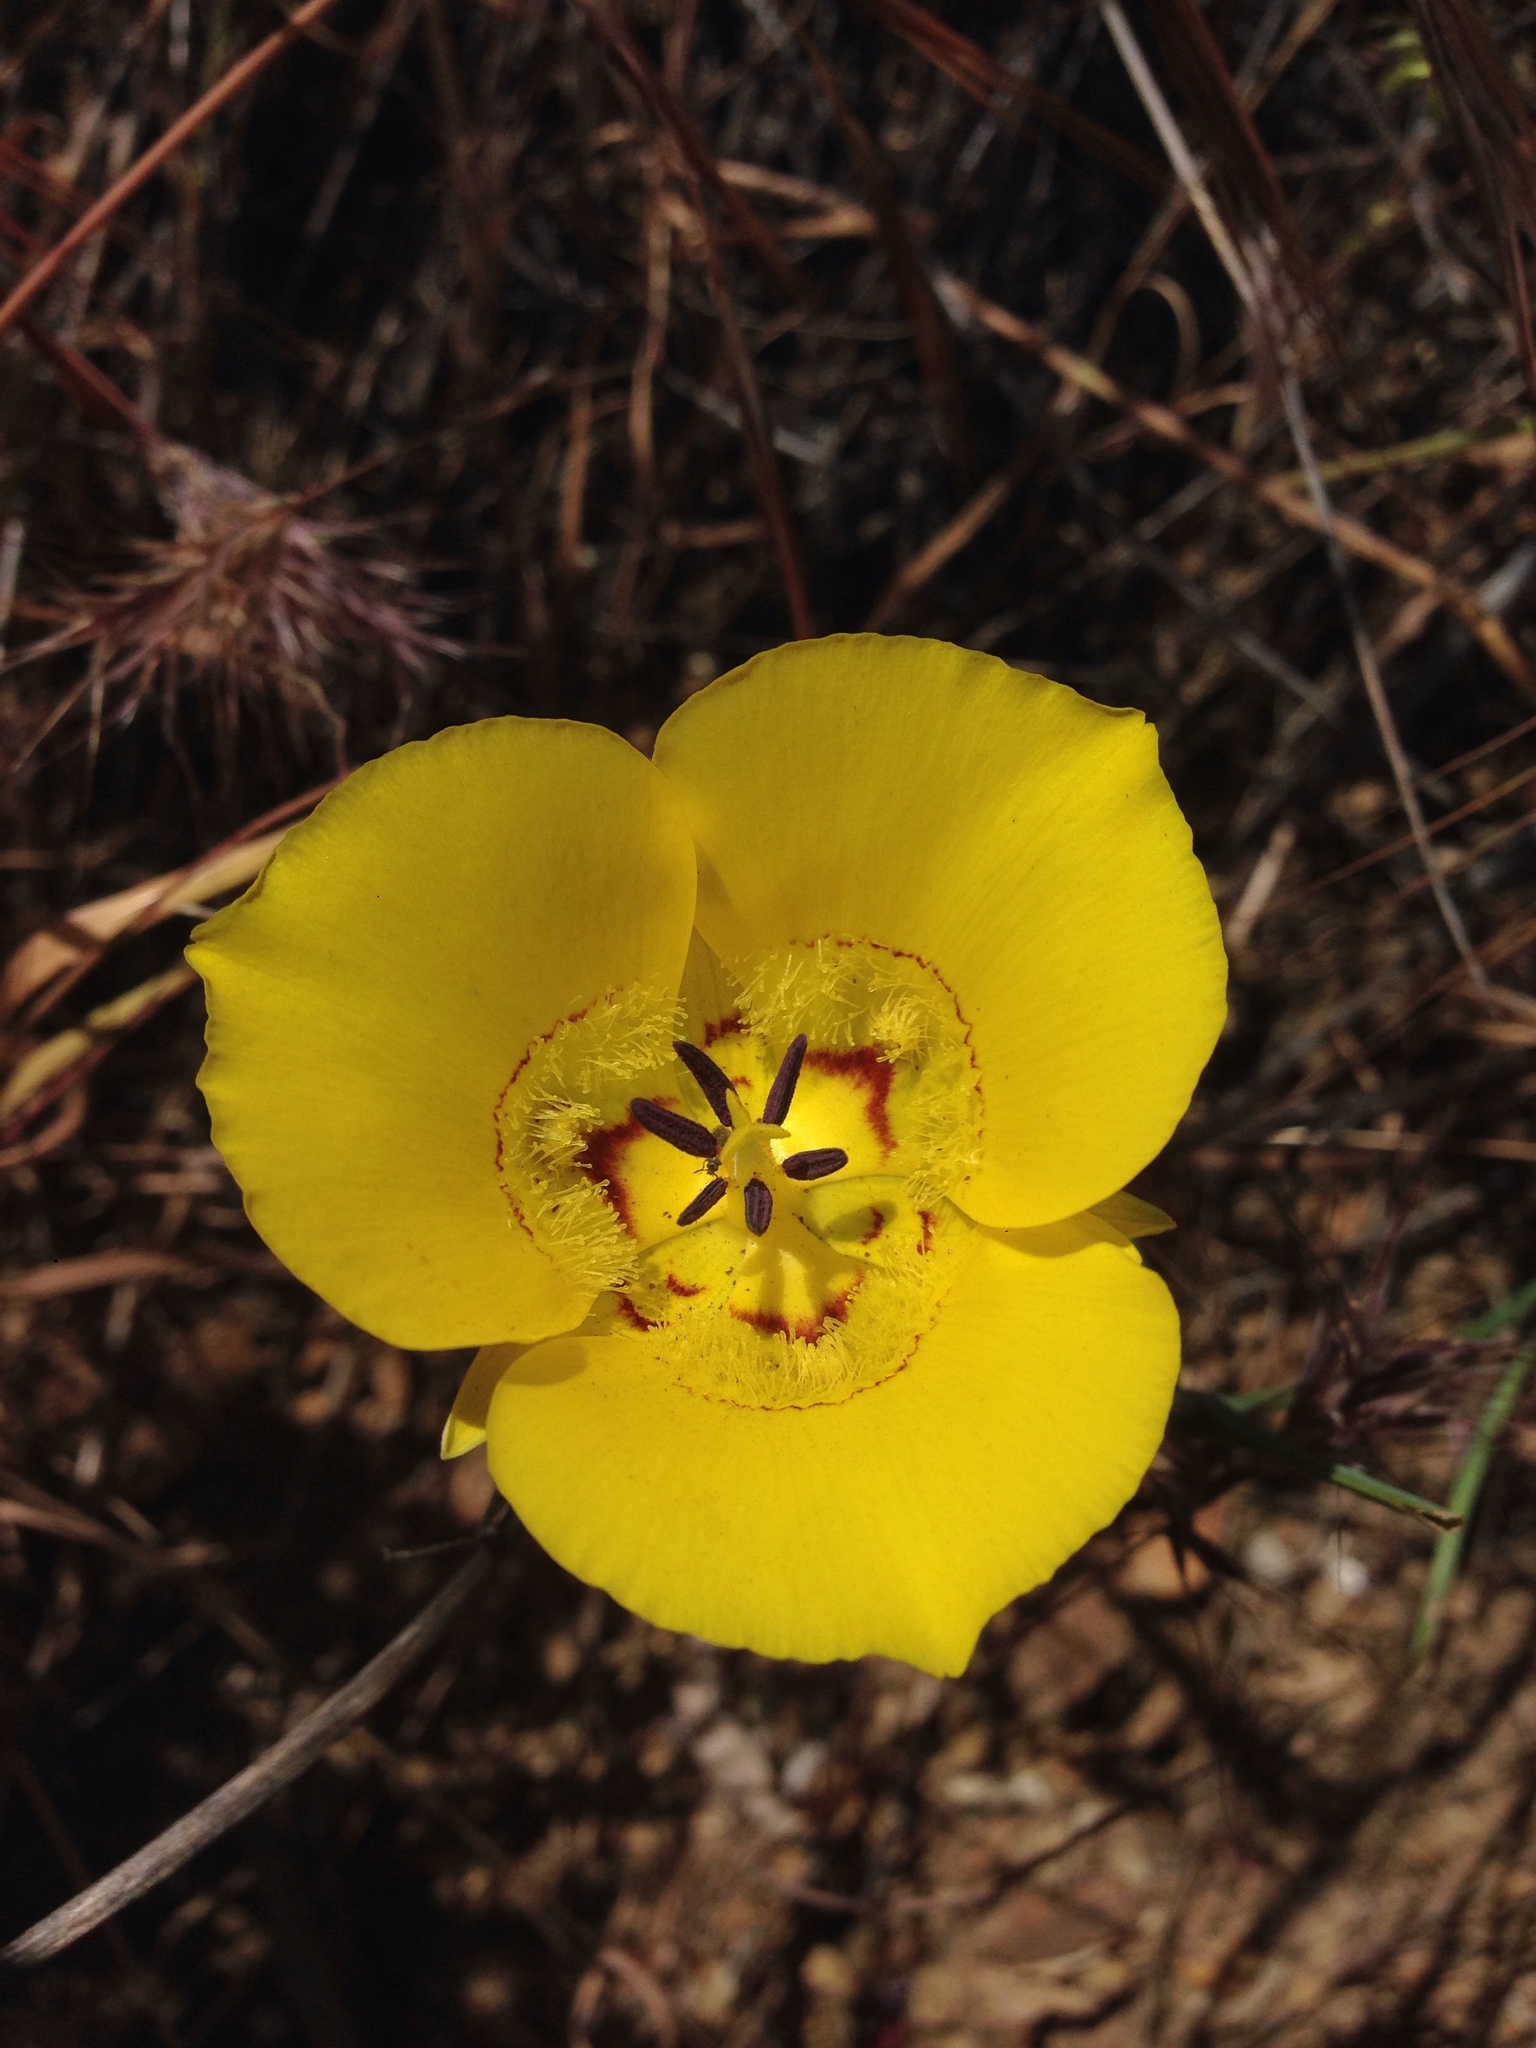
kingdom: Plantae
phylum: Tracheophyta
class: Liliopsida
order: Liliales
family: Liliaceae
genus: Calochortus
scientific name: Calochortus clavatus
